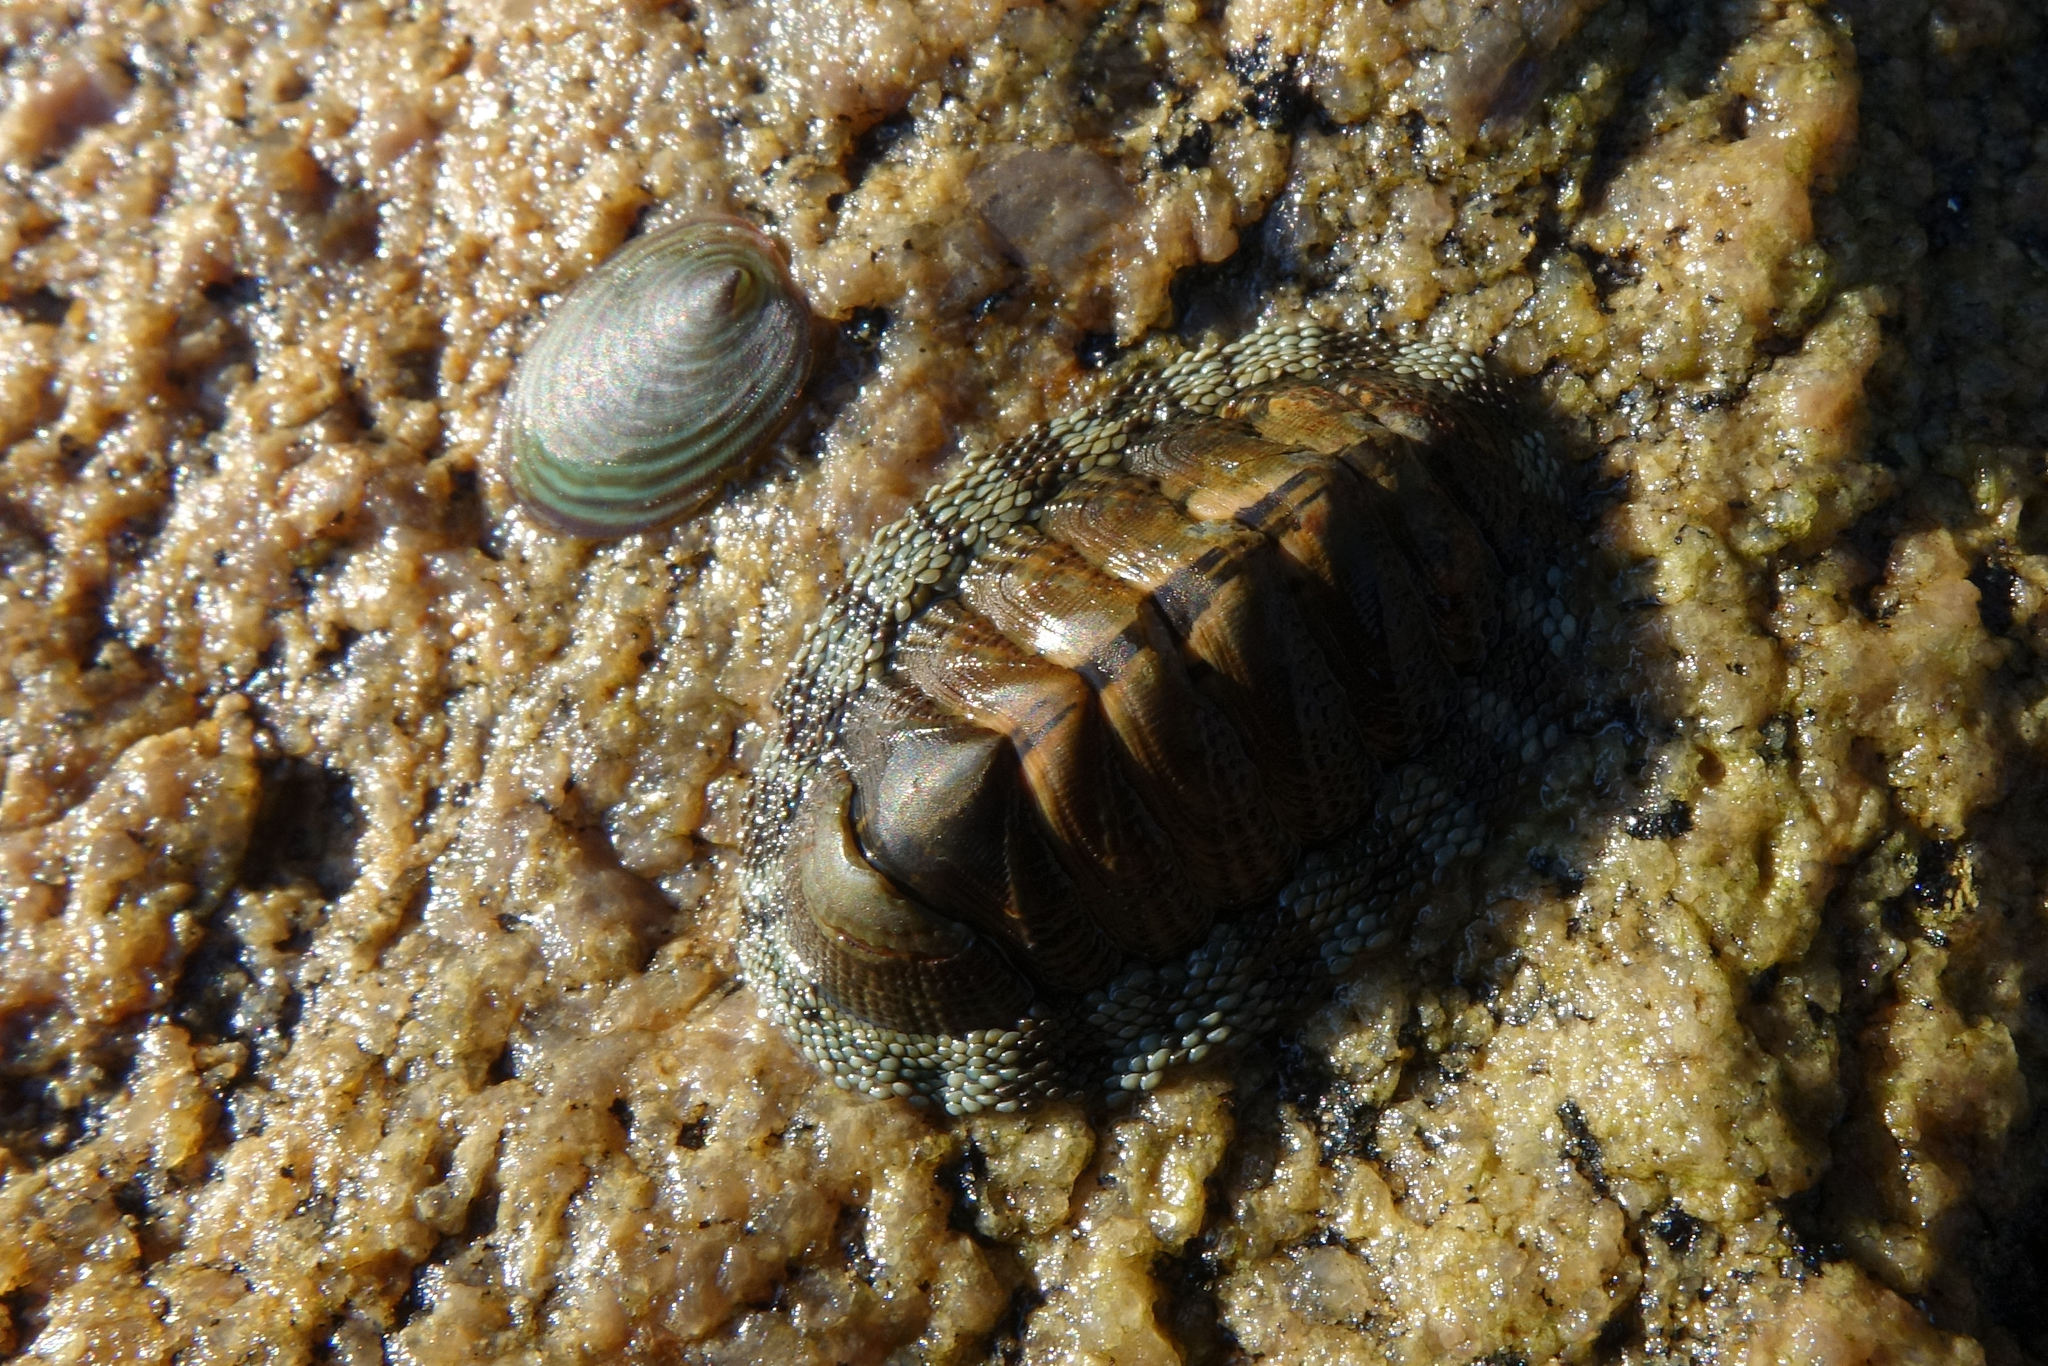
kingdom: Animalia
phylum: Mollusca
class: Polyplacophora
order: Chitonida
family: Chitonidae
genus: Sypharochiton
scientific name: Sypharochiton pelliserpentis
